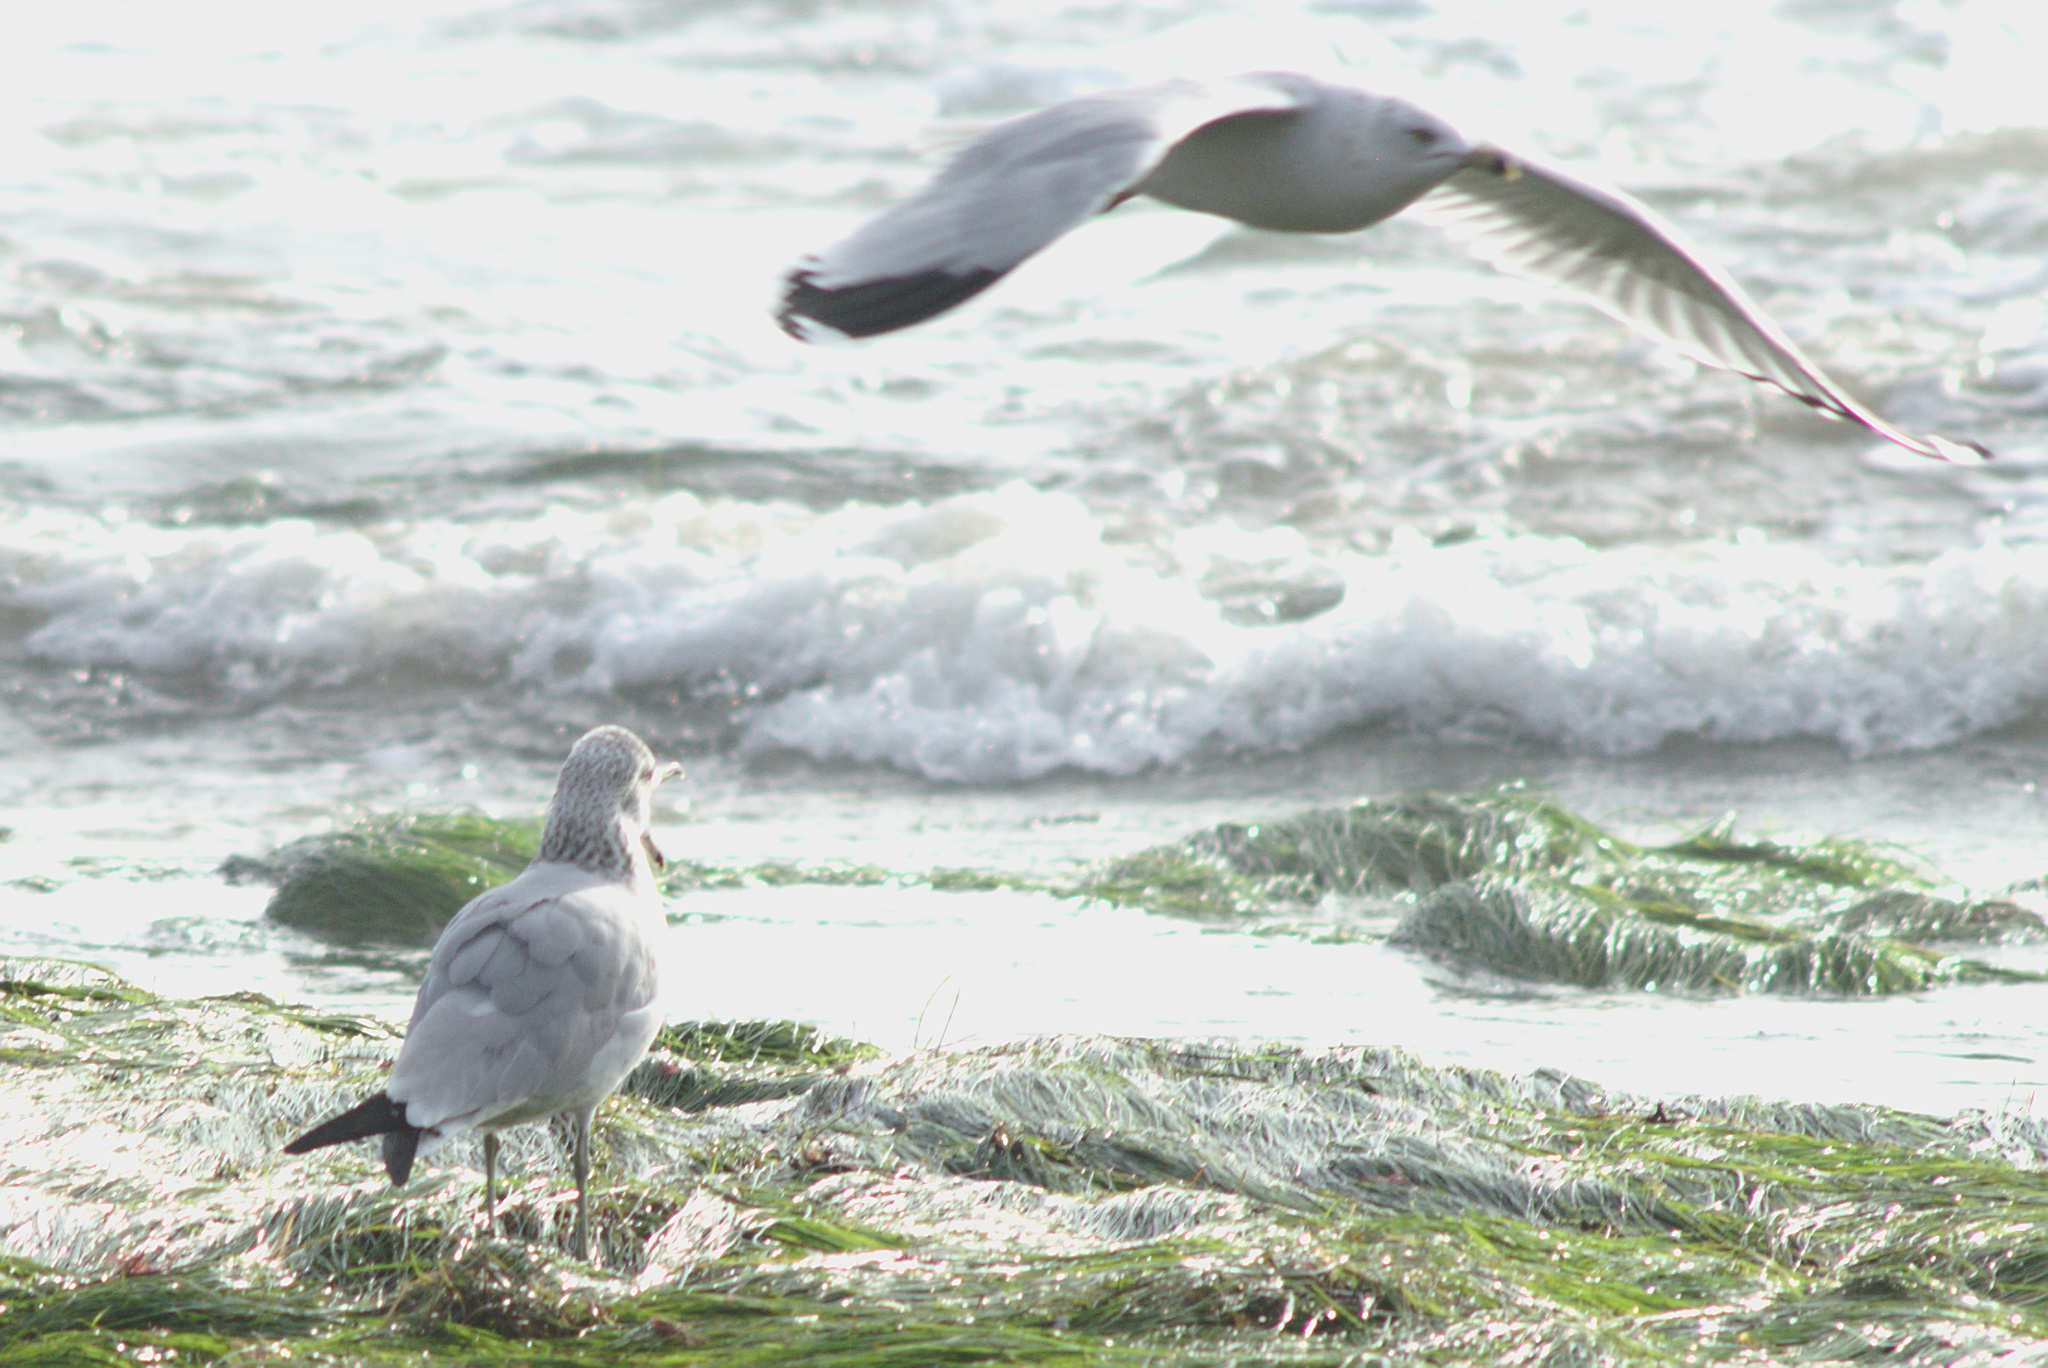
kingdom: Animalia
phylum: Chordata
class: Aves
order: Charadriiformes
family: Laridae
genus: Larus
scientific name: Larus delawarensis
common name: Ring-billed gull
